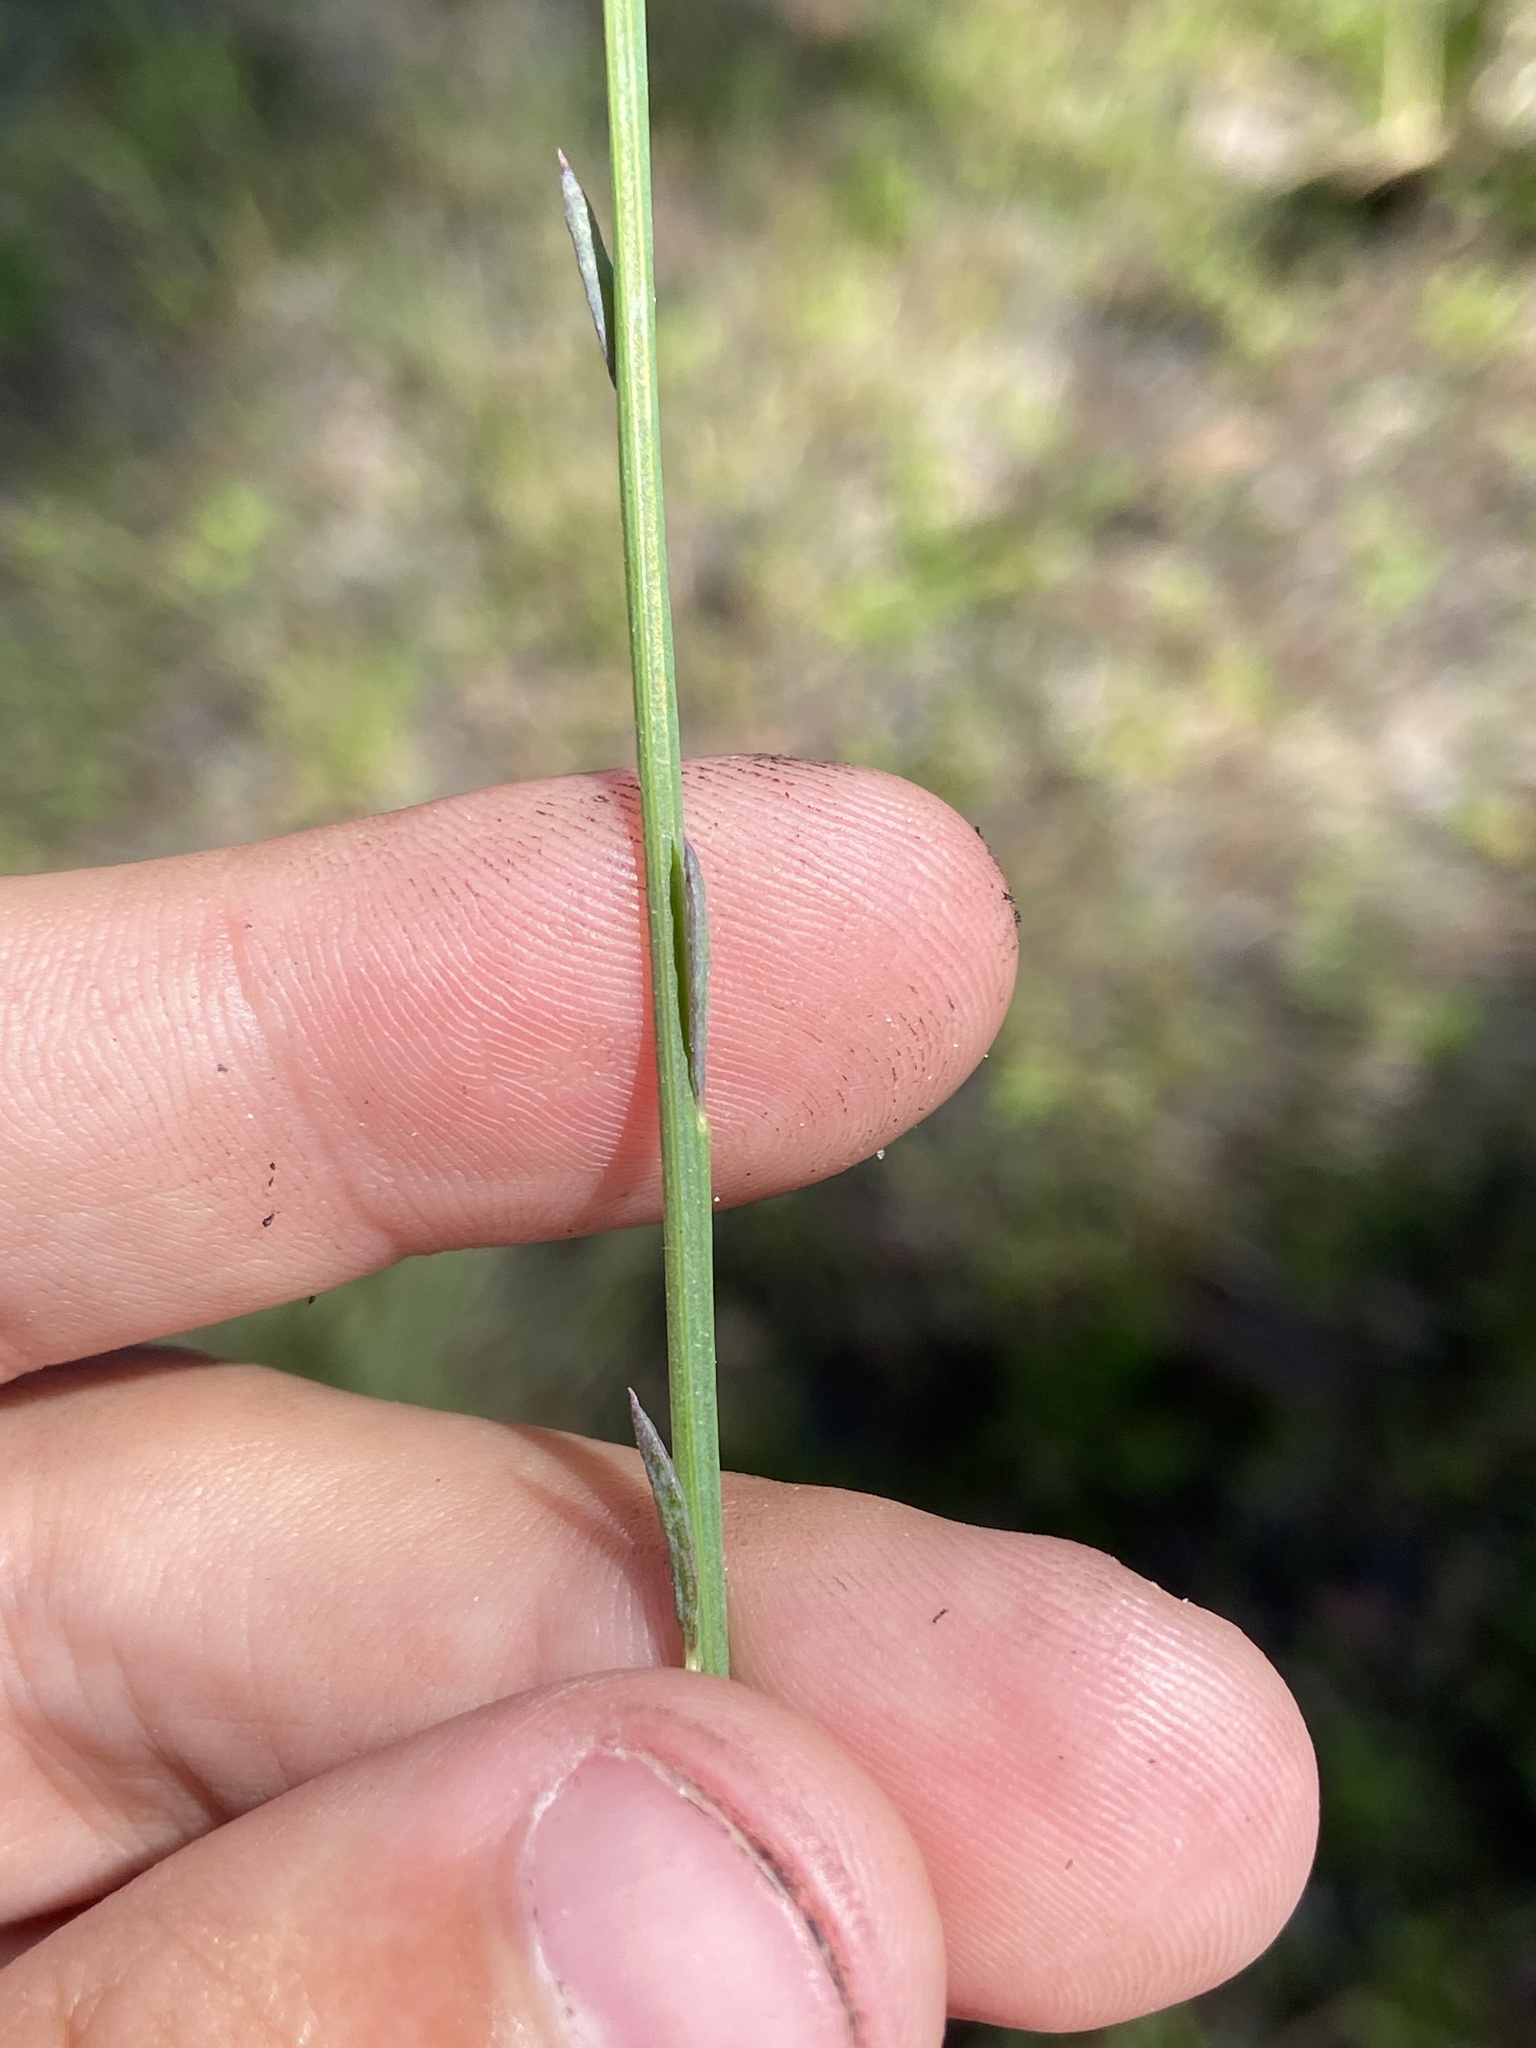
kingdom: Plantae
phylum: Tracheophyta
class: Magnoliopsida
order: Fabales
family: Polygalaceae
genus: Polygala
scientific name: Polygala incarnata
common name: Pink milkwort
